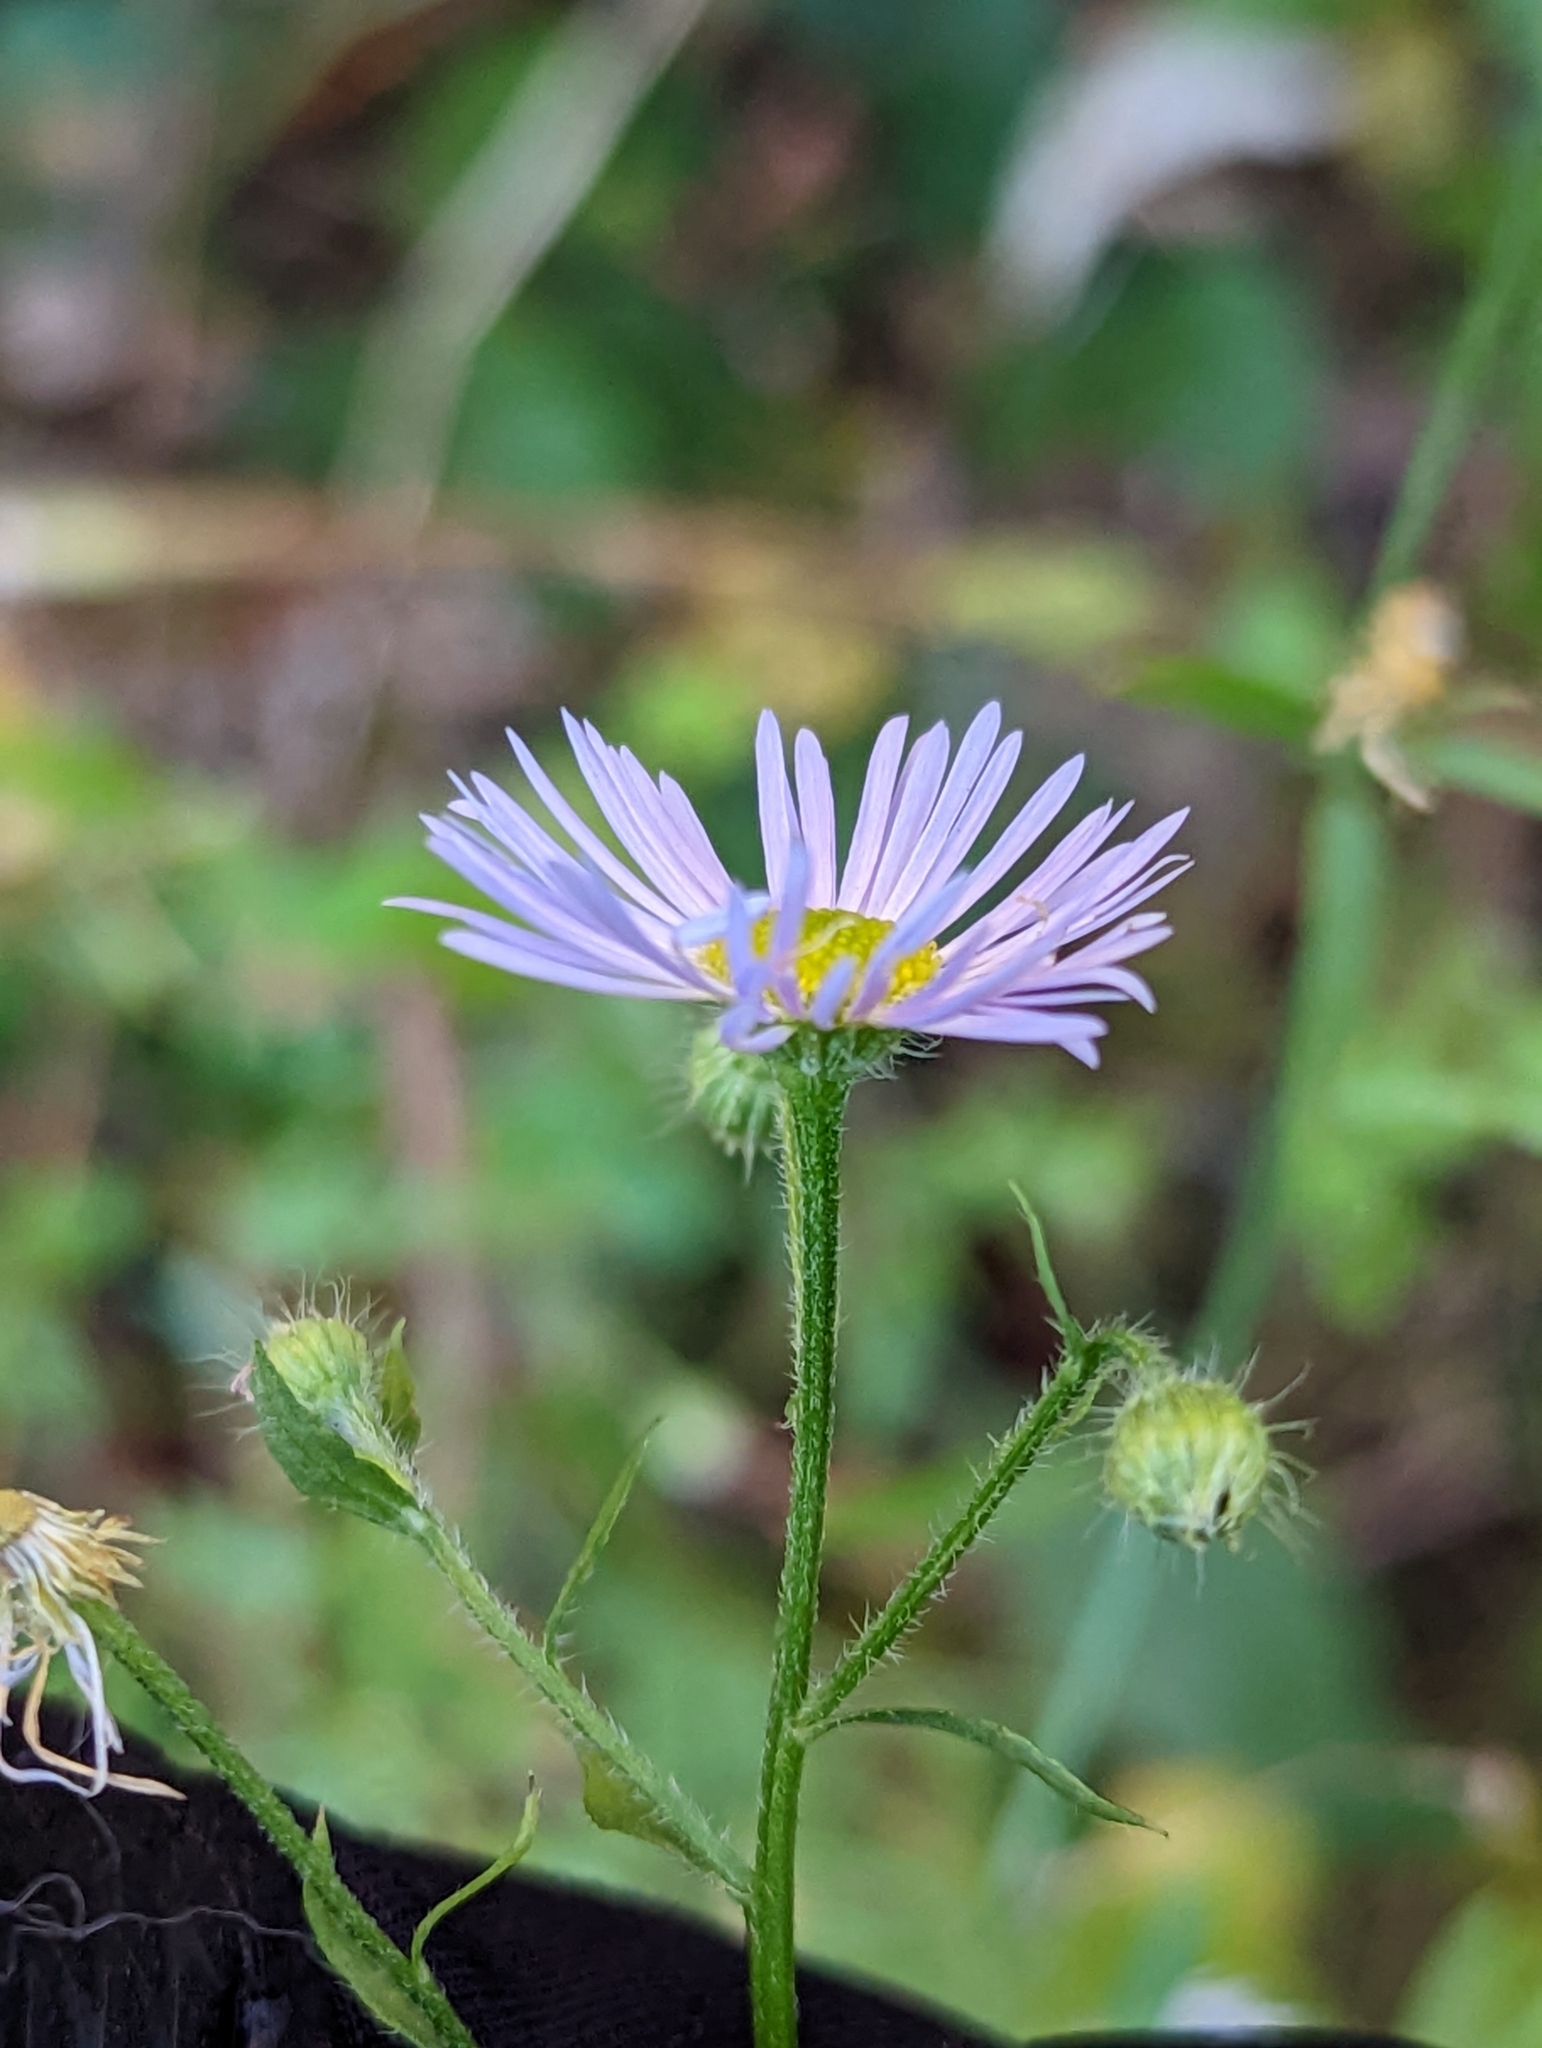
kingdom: Plantae
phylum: Tracheophyta
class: Magnoliopsida
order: Asterales
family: Asteraceae
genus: Erigeron
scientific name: Erigeron annuus
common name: Tall fleabane
